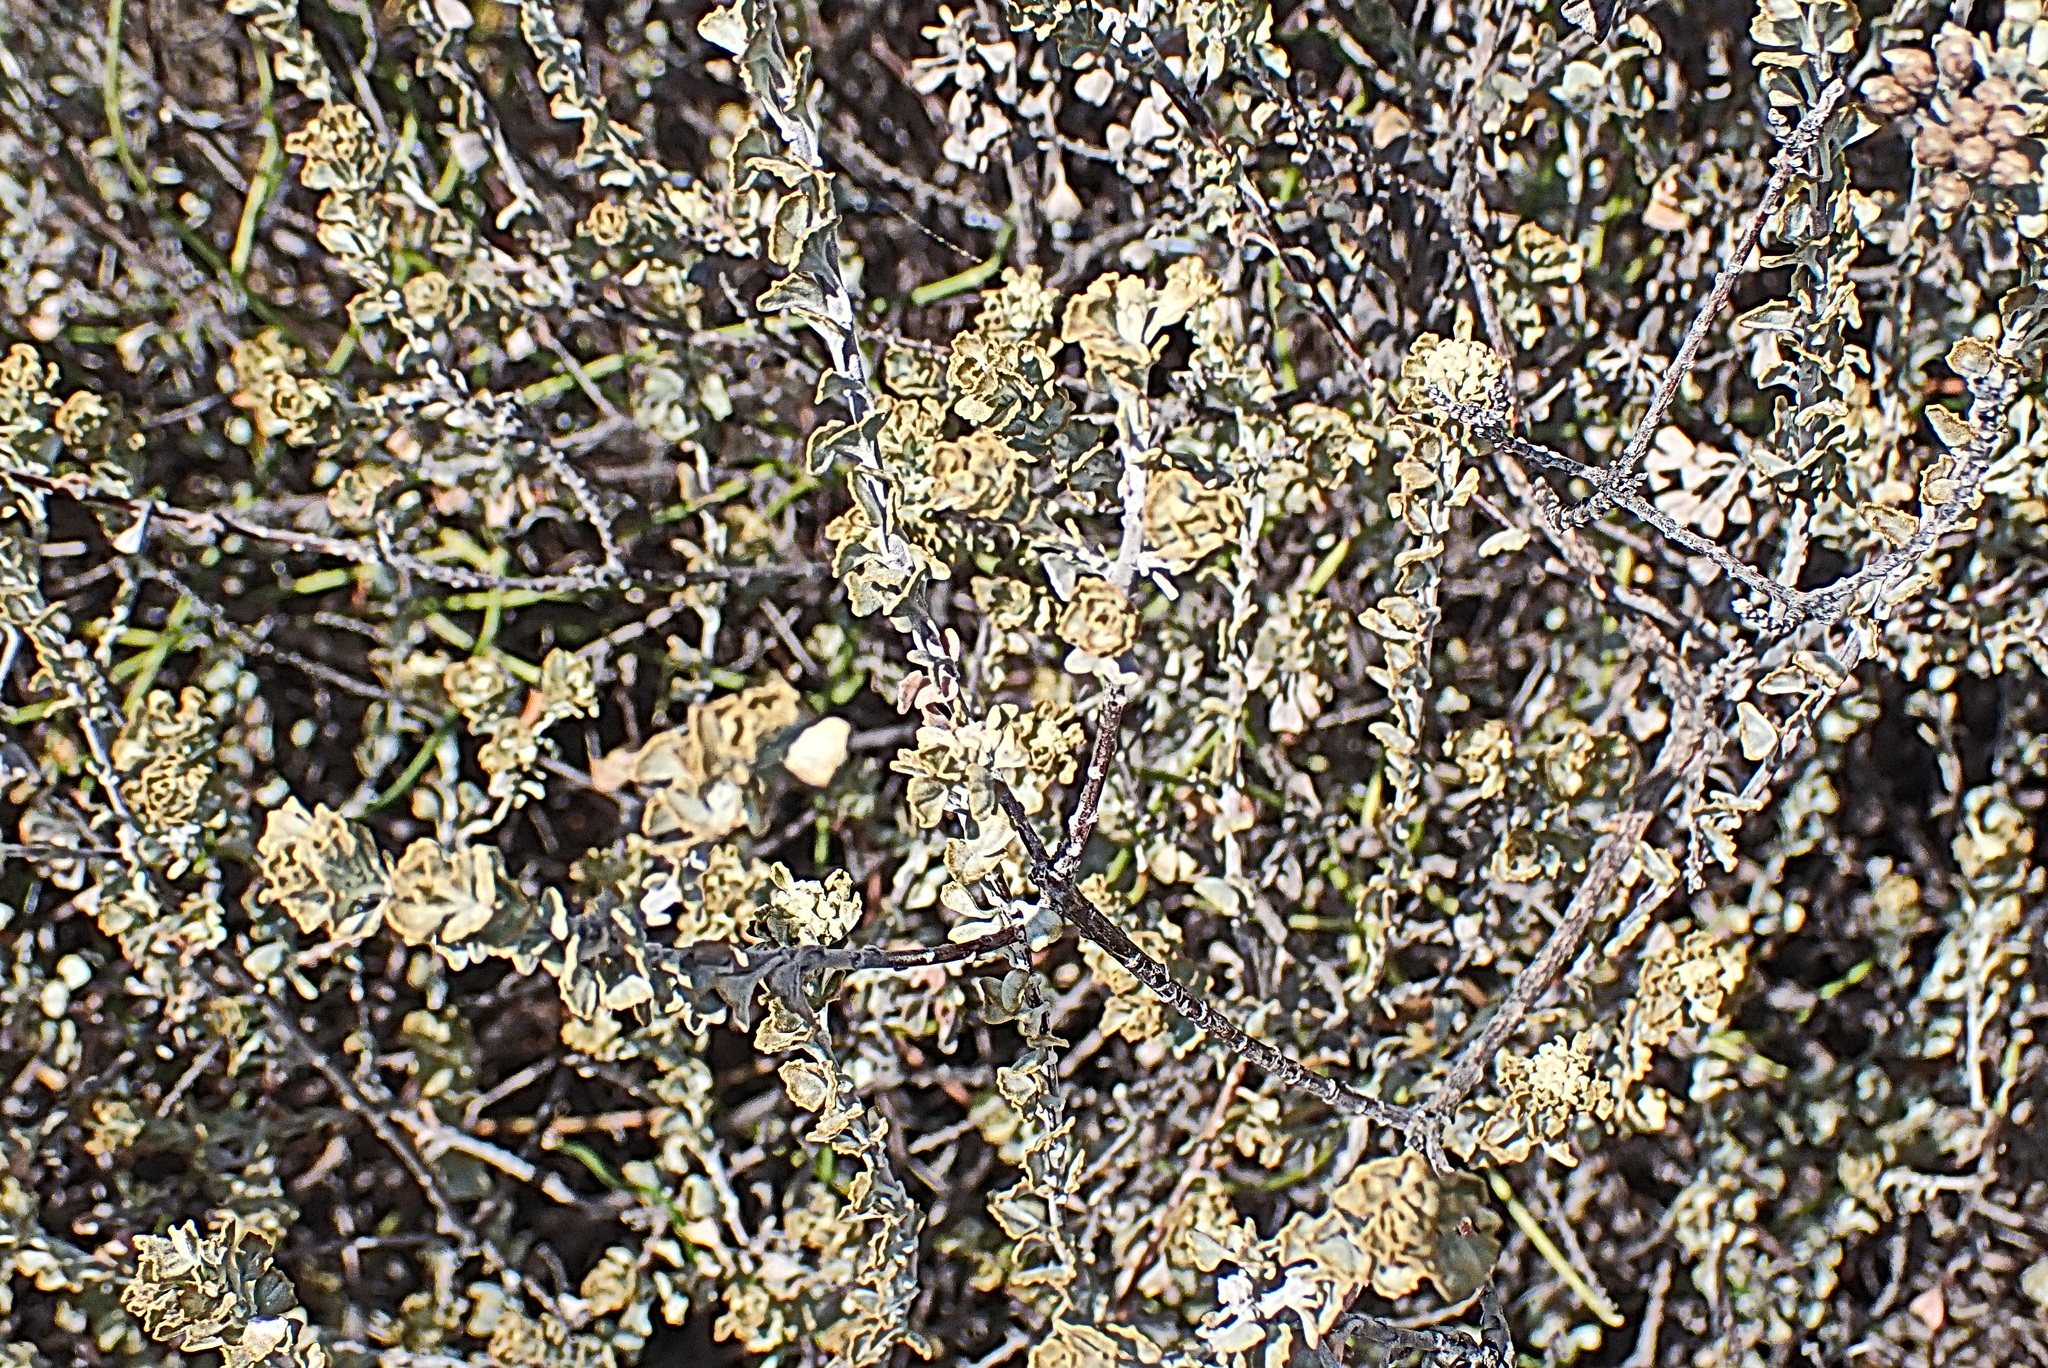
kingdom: Plantae
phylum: Tracheophyta
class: Magnoliopsida
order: Asterales
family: Asteraceae
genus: Dicerothamnus
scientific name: Dicerothamnus rhinocerotis
